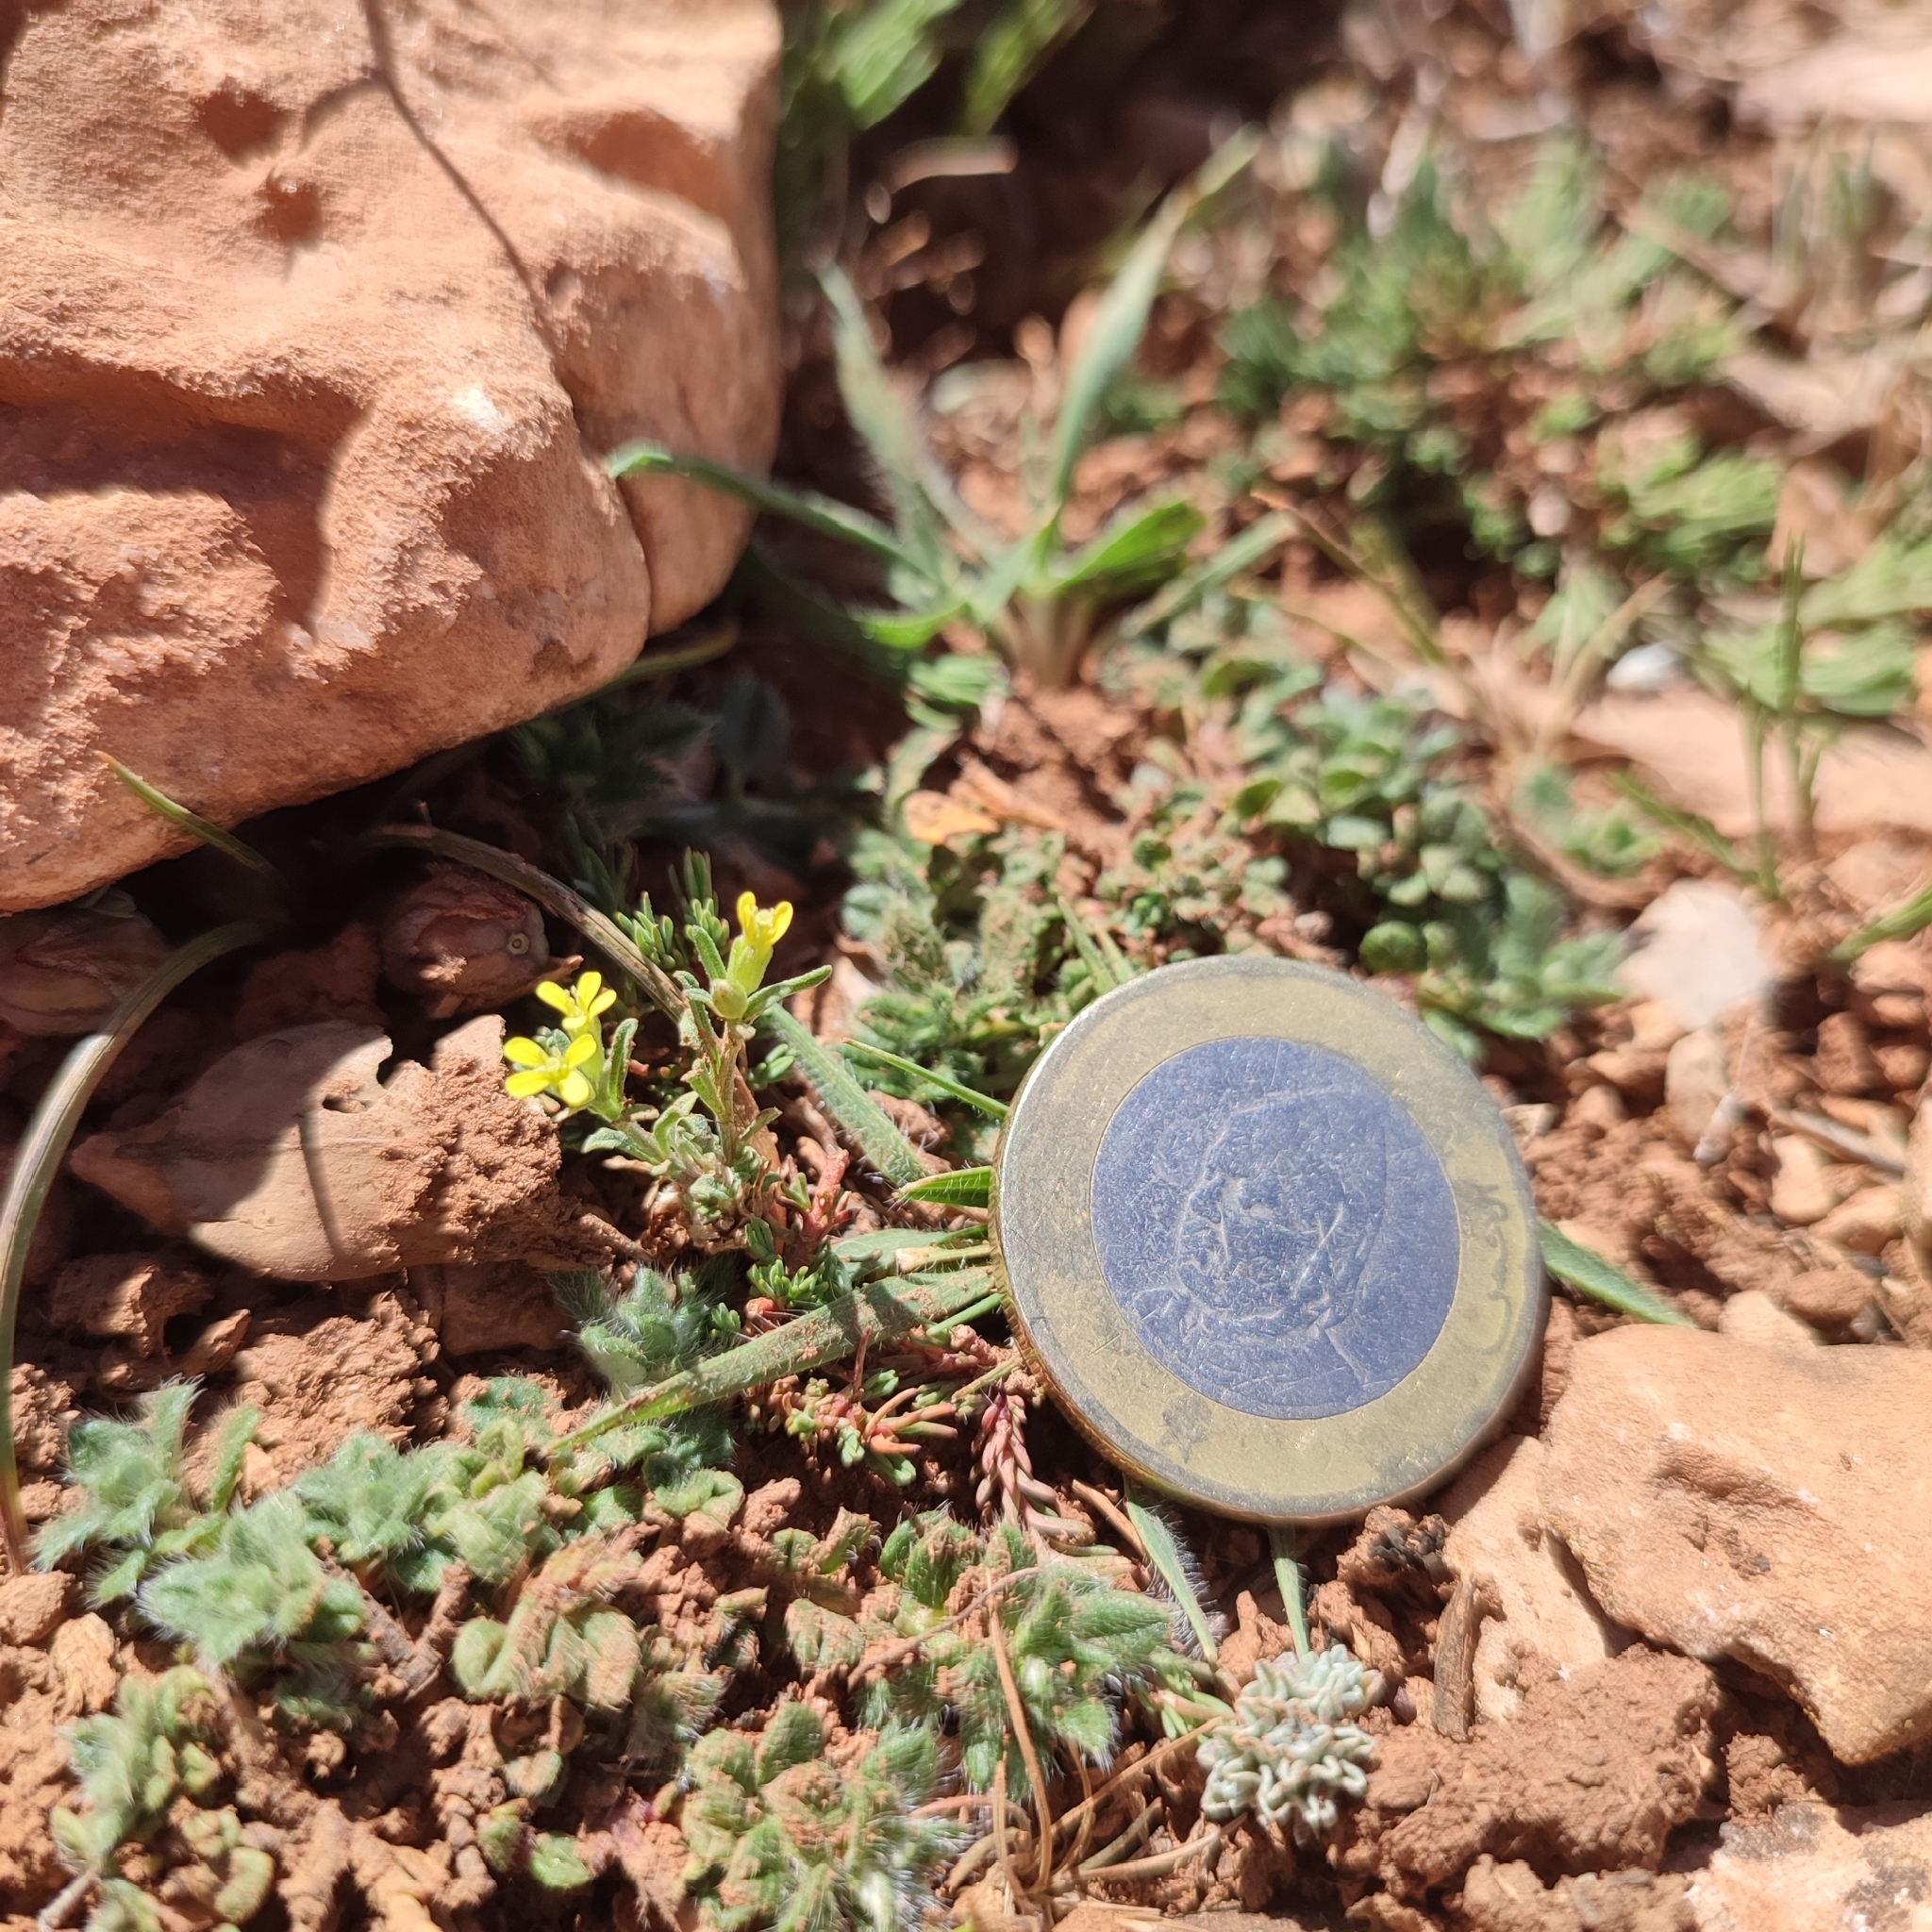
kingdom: Plantae
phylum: Tracheophyta
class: Magnoliopsida
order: Brassicales
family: Brassicaceae
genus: Erysimum
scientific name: Erysimum incanum
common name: Hoary treacle mustard
